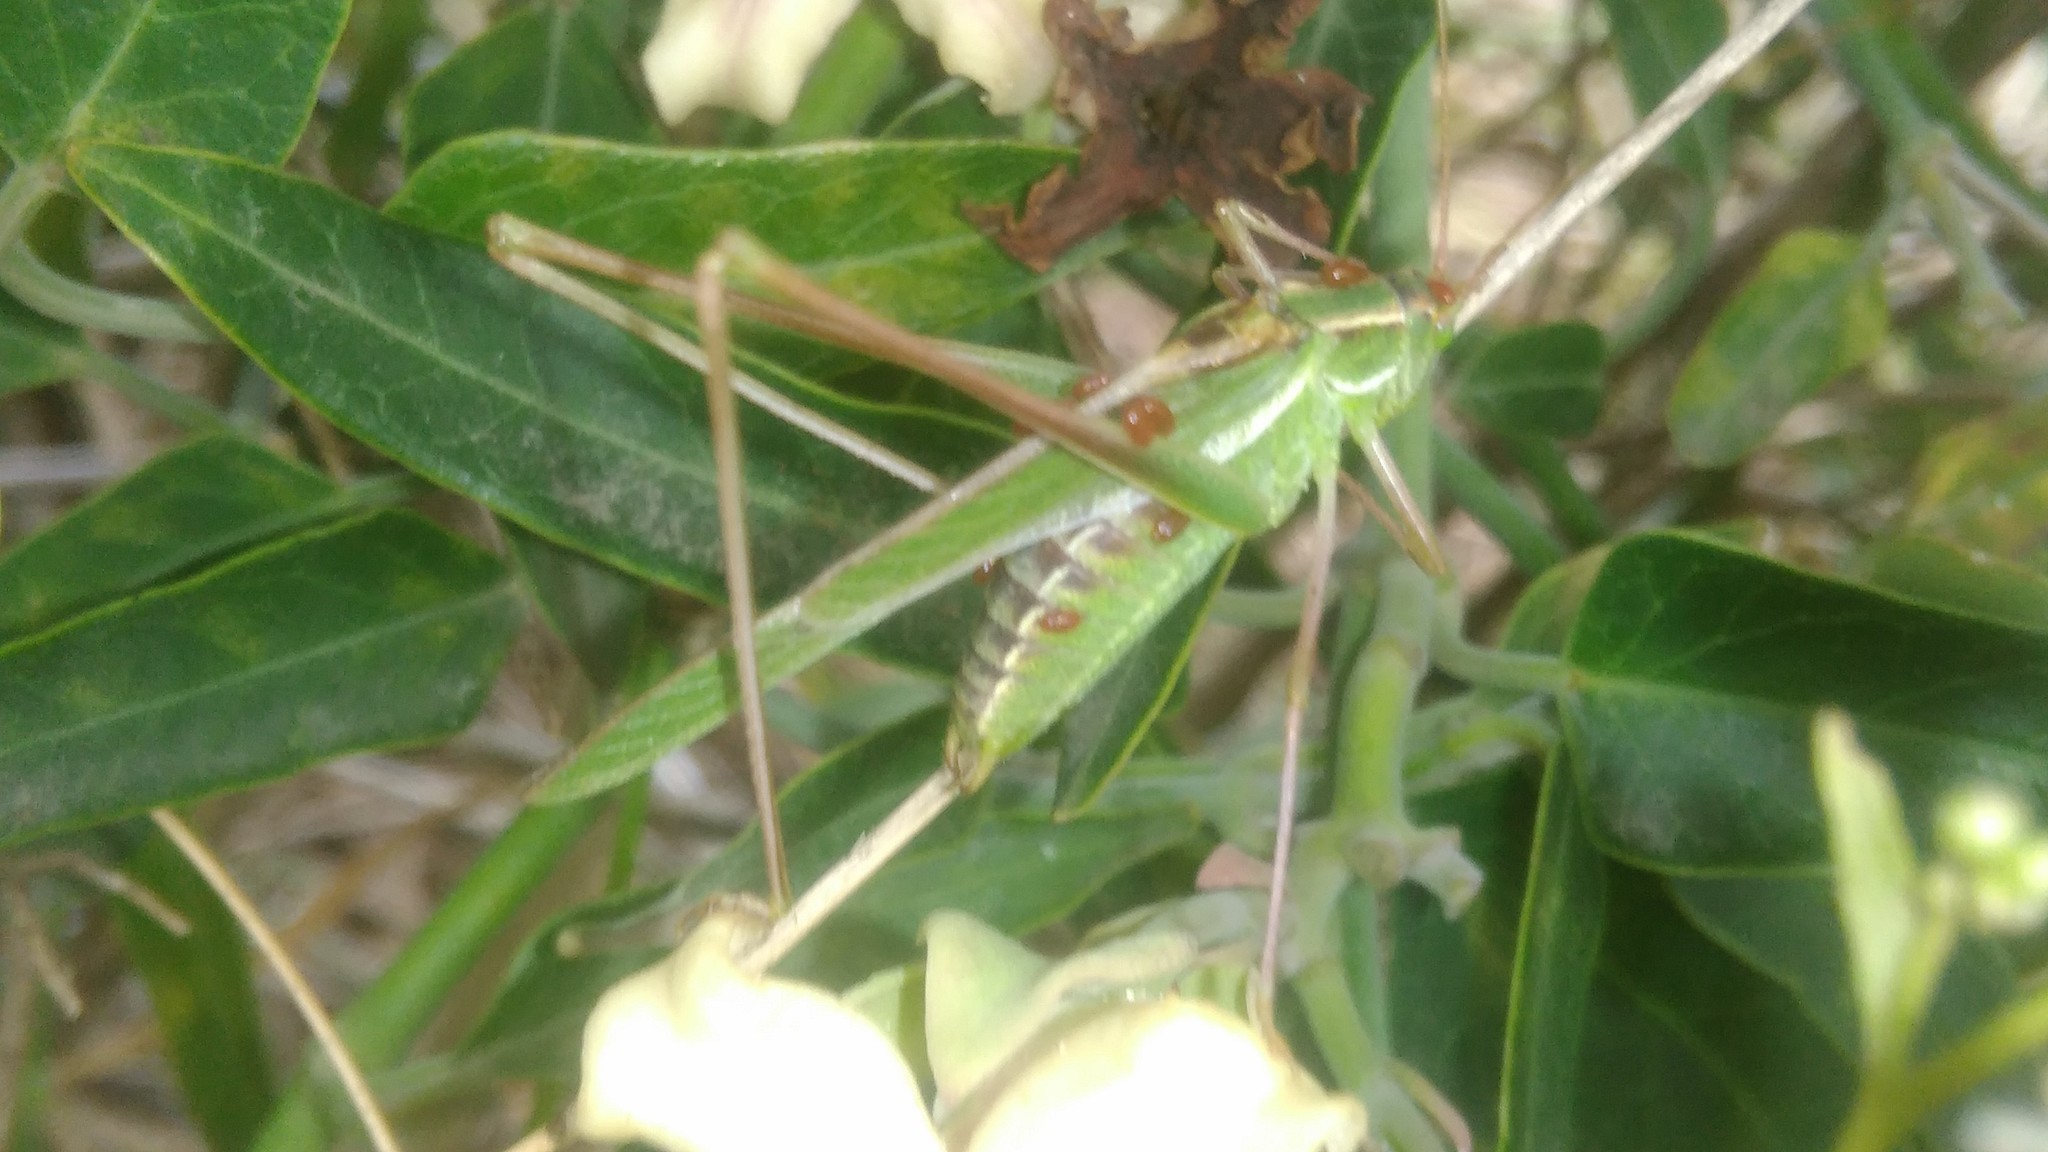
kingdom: Animalia
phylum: Arthropoda
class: Insecta
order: Orthoptera
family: Tettigoniidae
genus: Burgilis
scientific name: Burgilis curta
